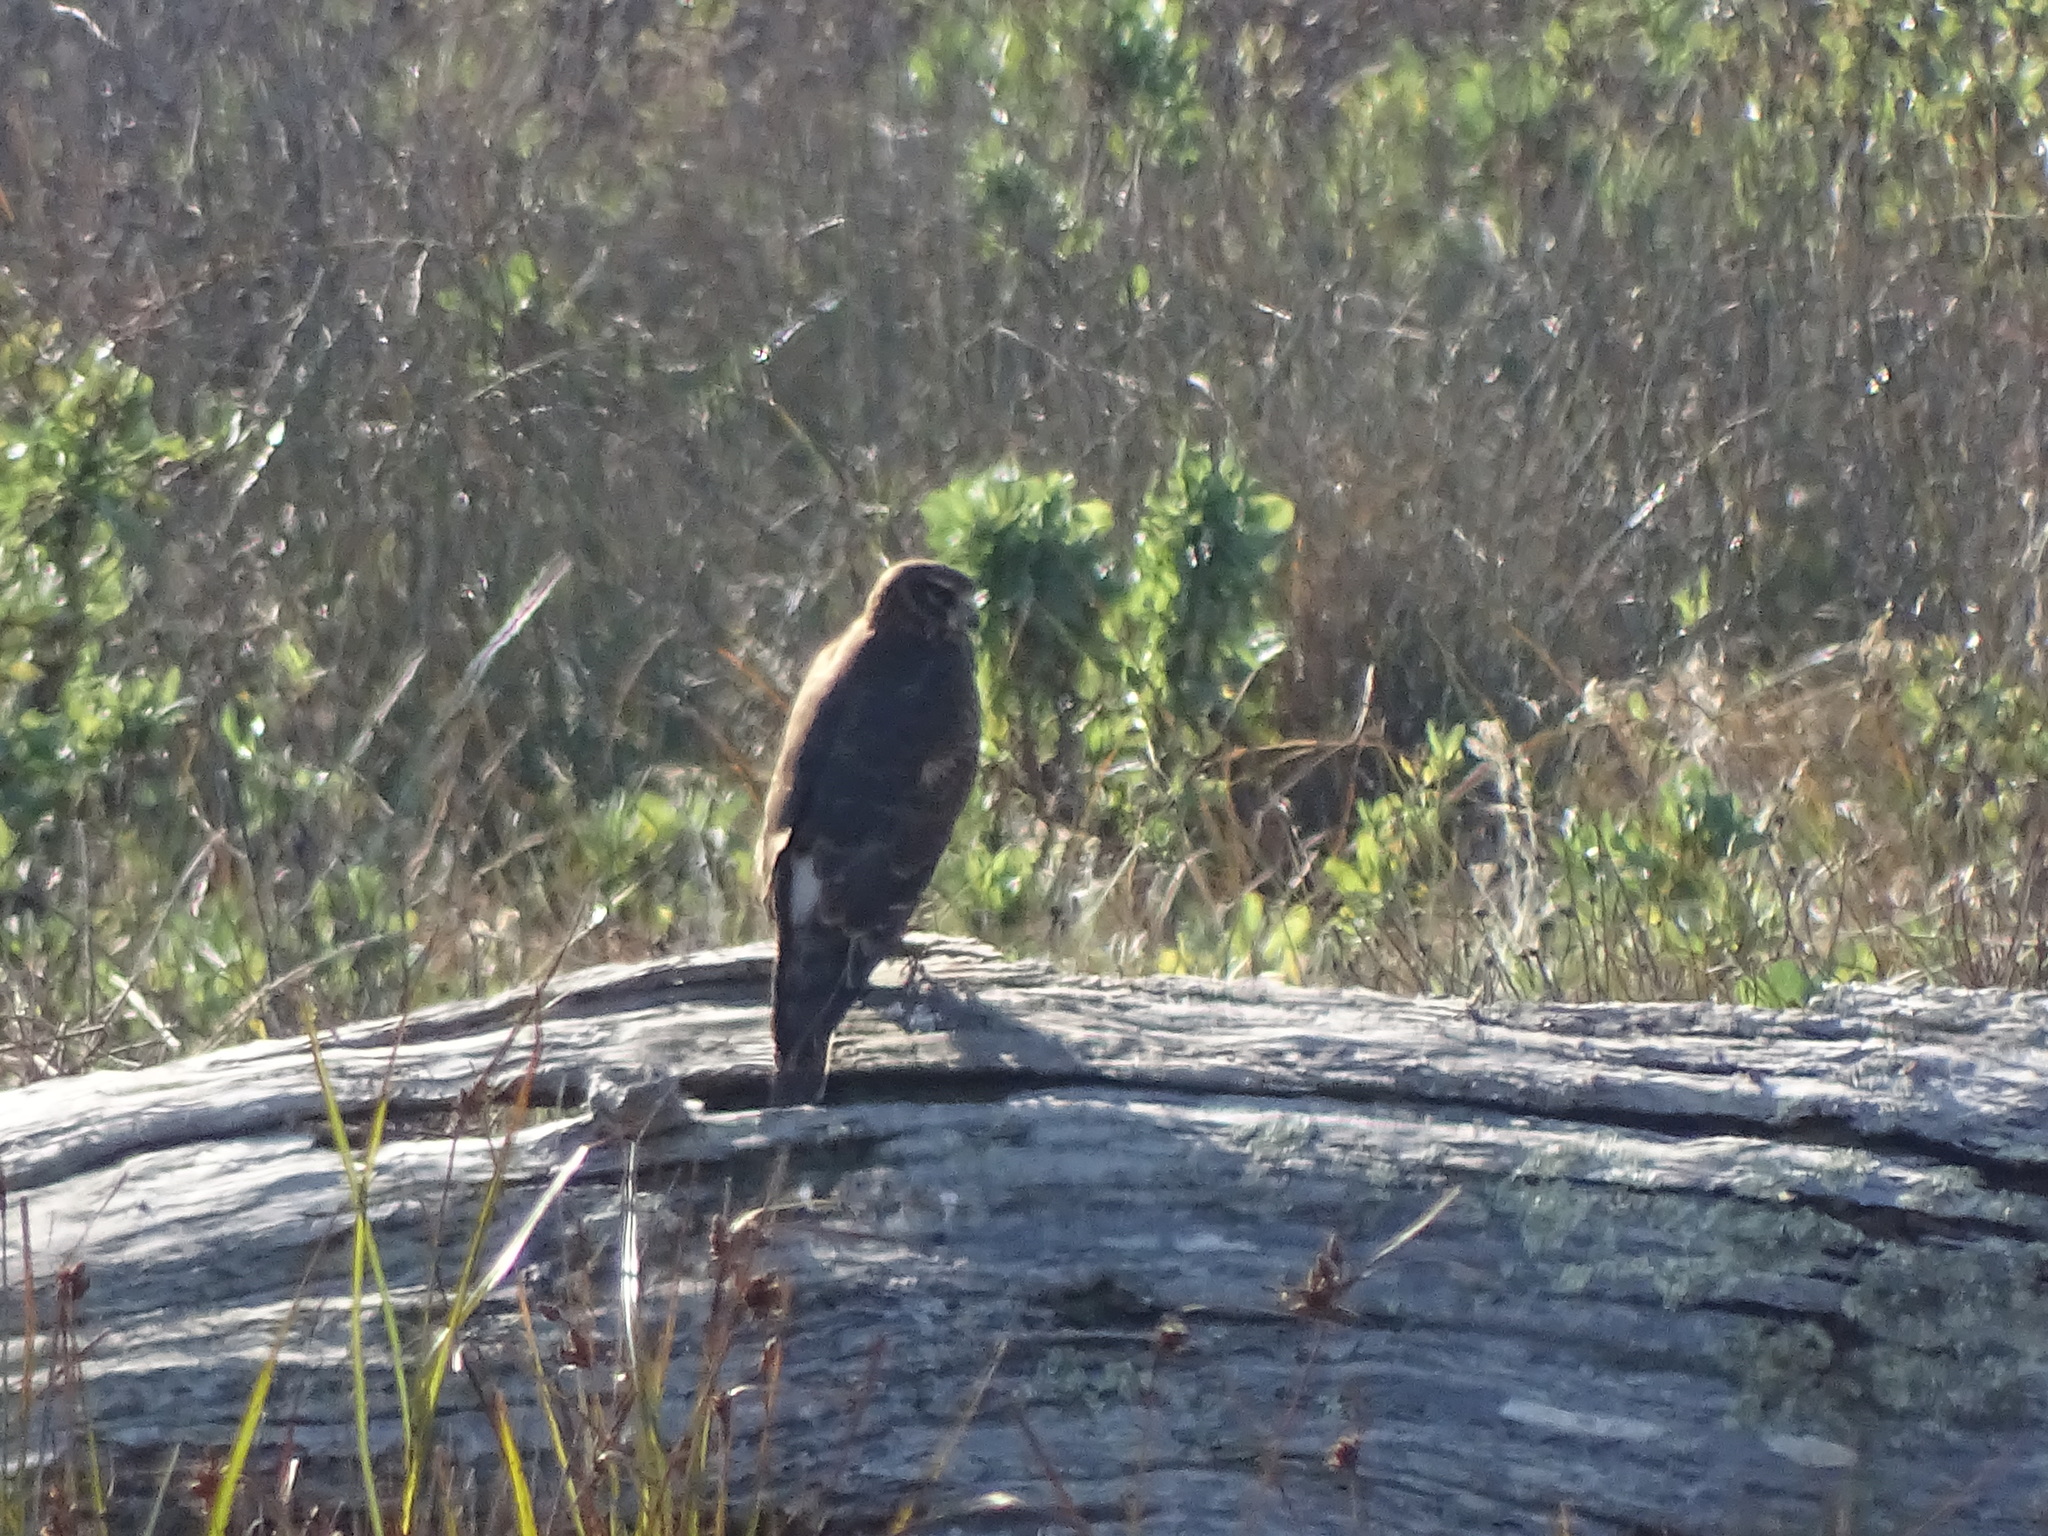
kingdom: Animalia
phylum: Chordata
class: Aves
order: Accipitriformes
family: Accipitridae
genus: Circus
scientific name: Circus cyaneus
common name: Hen harrier
